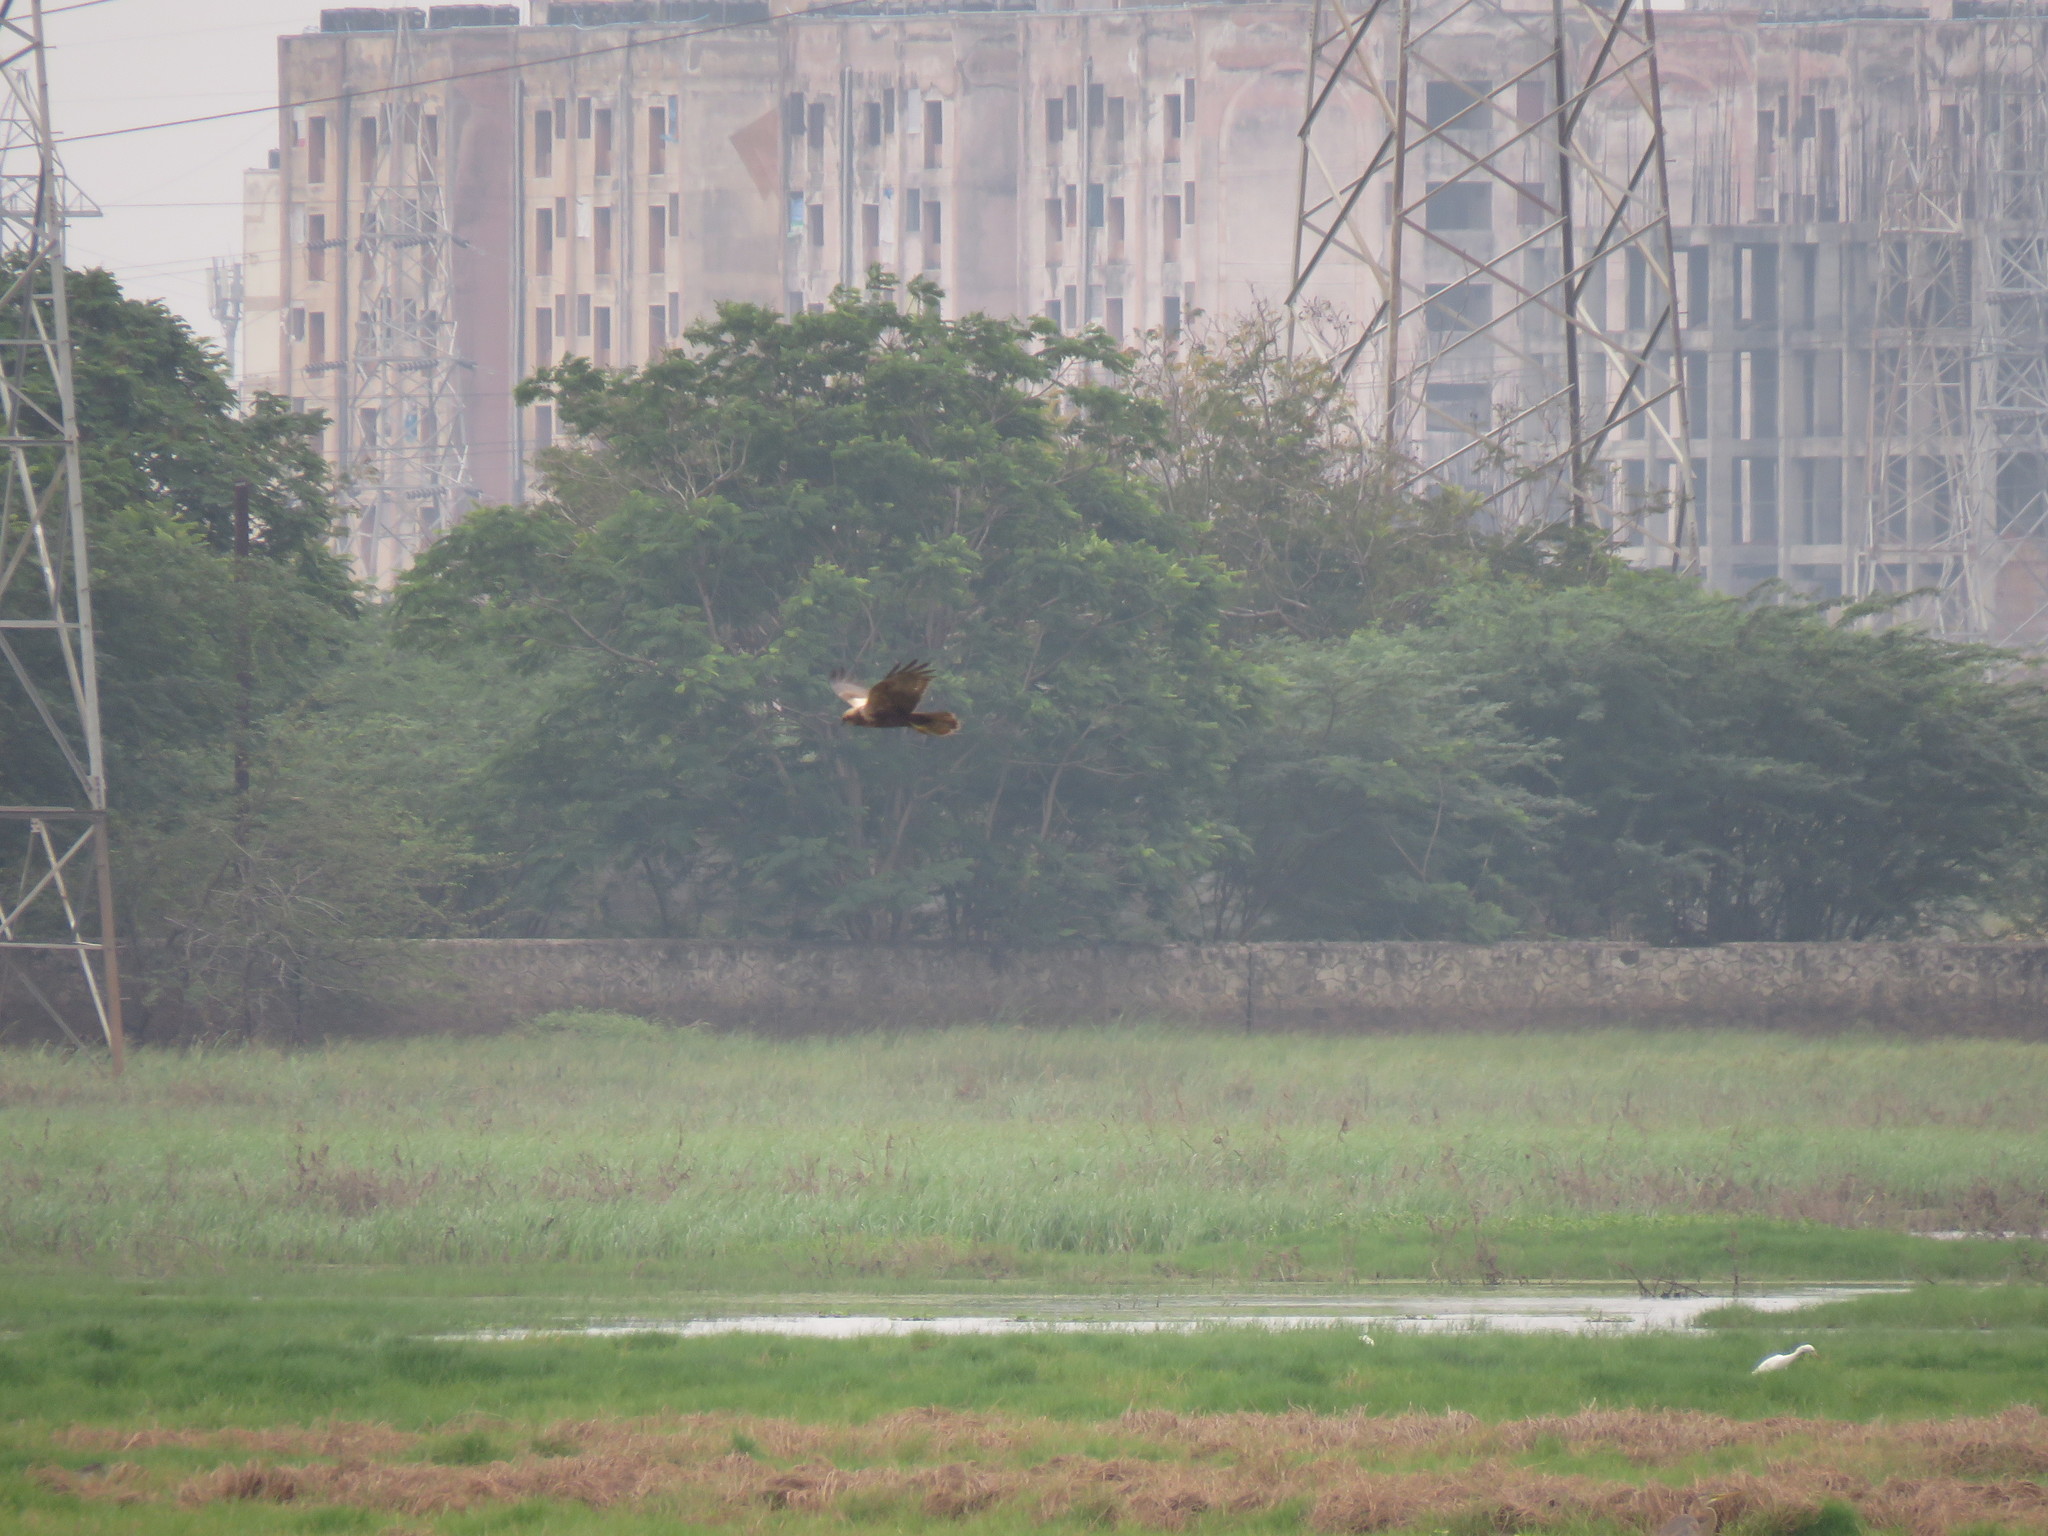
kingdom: Animalia
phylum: Chordata
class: Aves
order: Accipitriformes
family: Accipitridae
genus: Circus
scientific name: Circus aeruginosus
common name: Western marsh harrier
